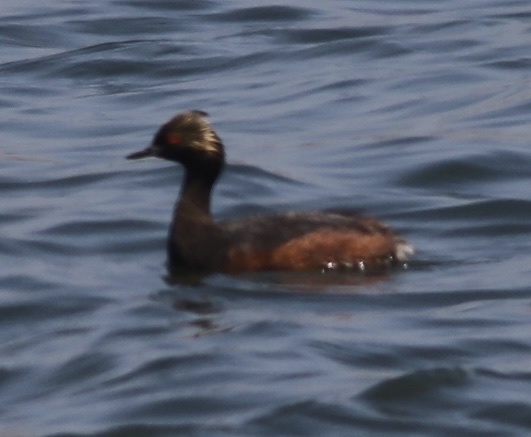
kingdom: Animalia
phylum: Chordata
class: Aves
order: Podicipediformes
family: Podicipedidae
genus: Podiceps
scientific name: Podiceps nigricollis
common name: Black-necked grebe
